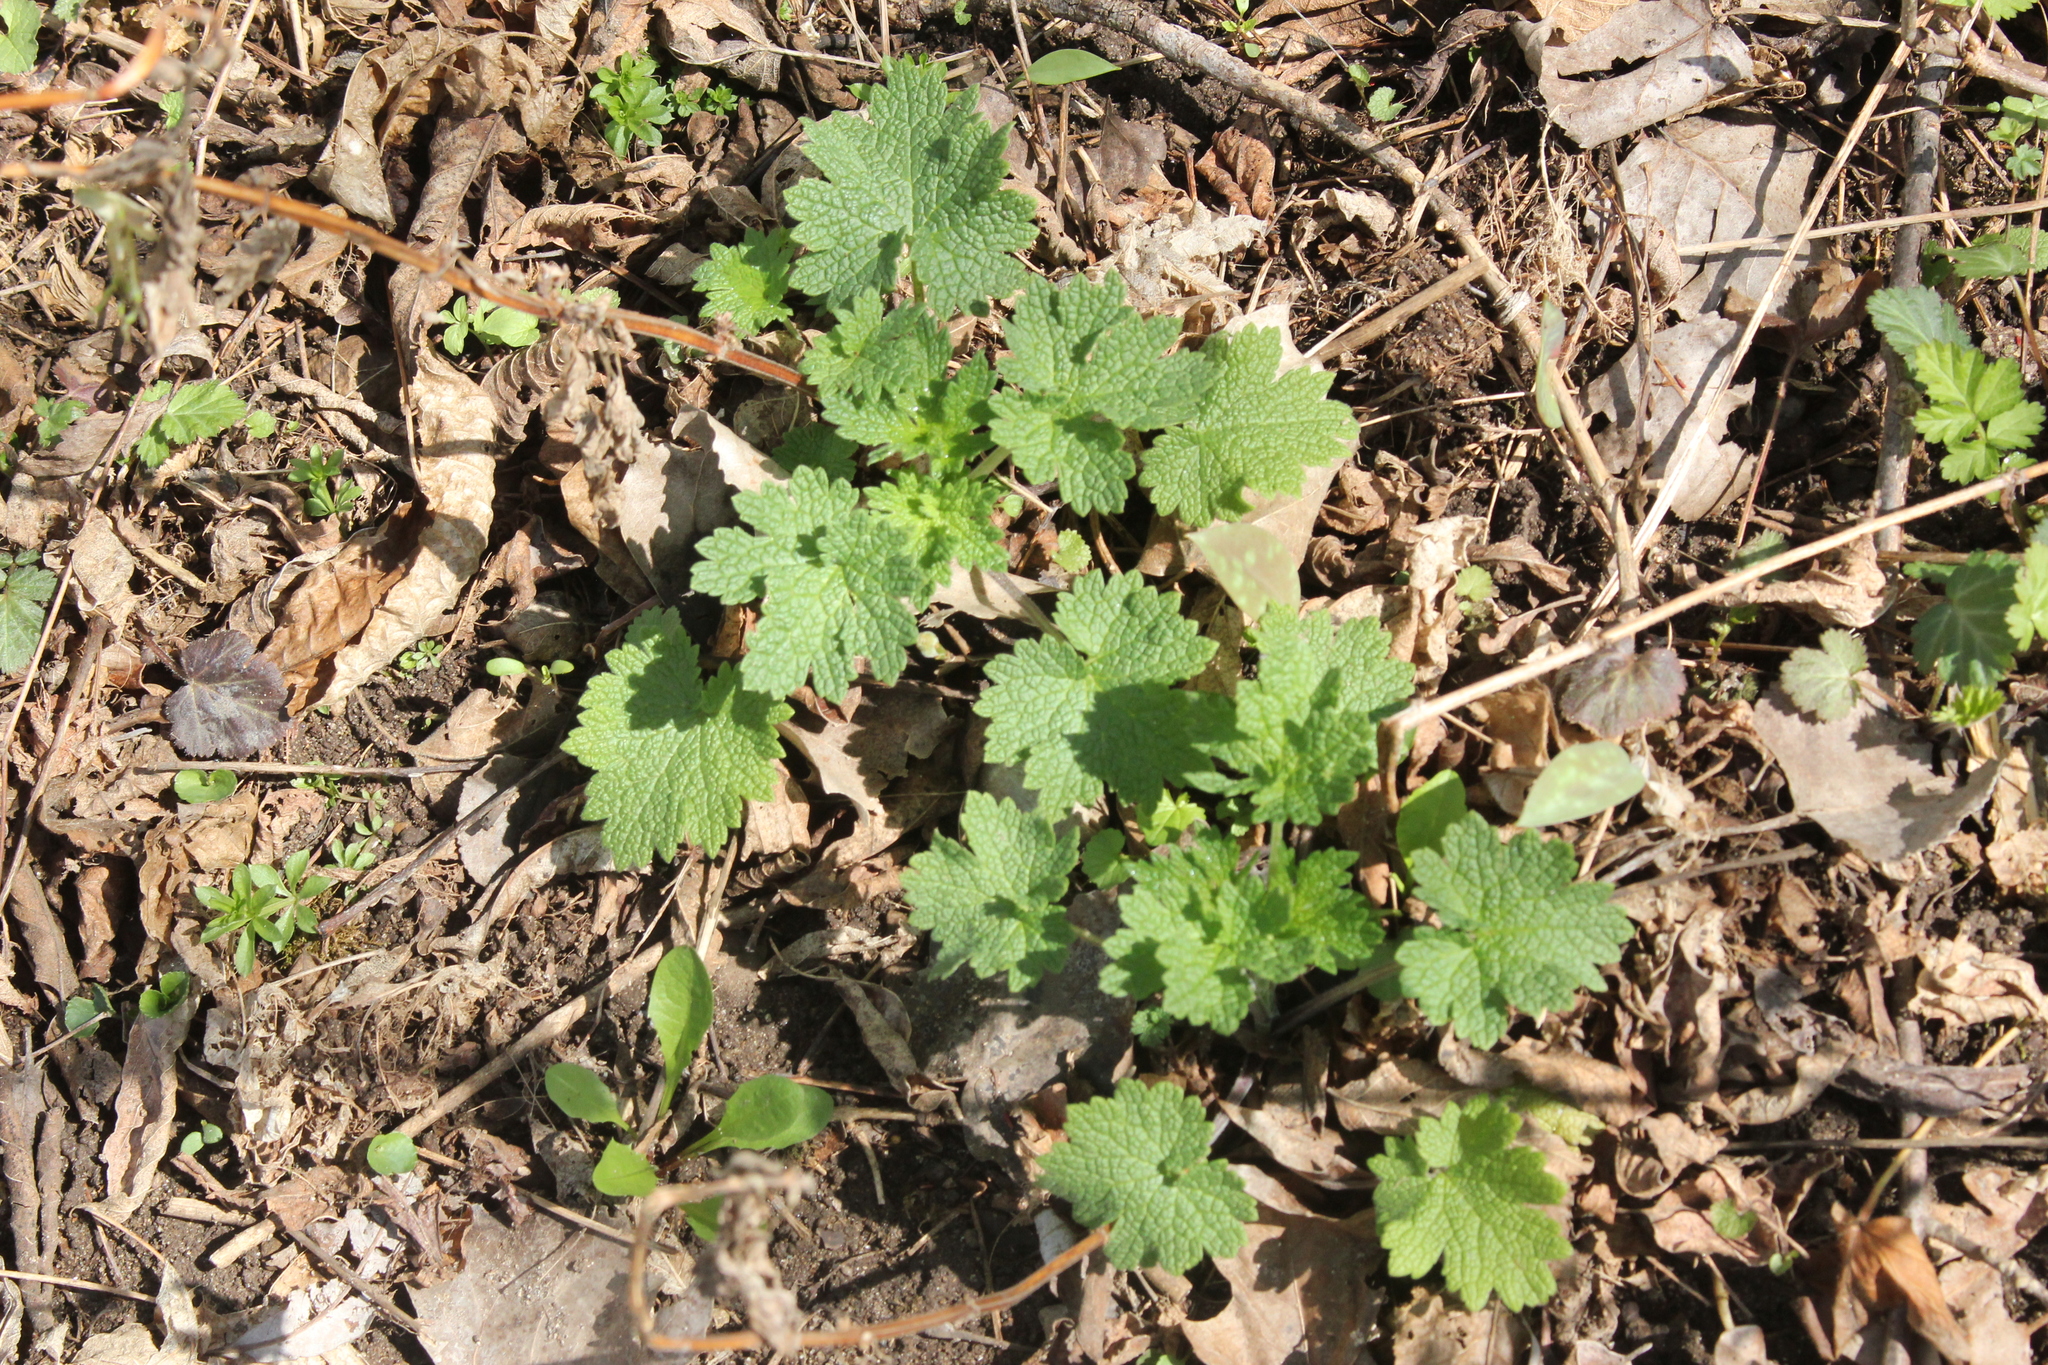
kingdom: Plantae
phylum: Tracheophyta
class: Magnoliopsida
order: Lamiales
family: Lamiaceae
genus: Leonurus
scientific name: Leonurus cardiaca
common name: Motherwort
